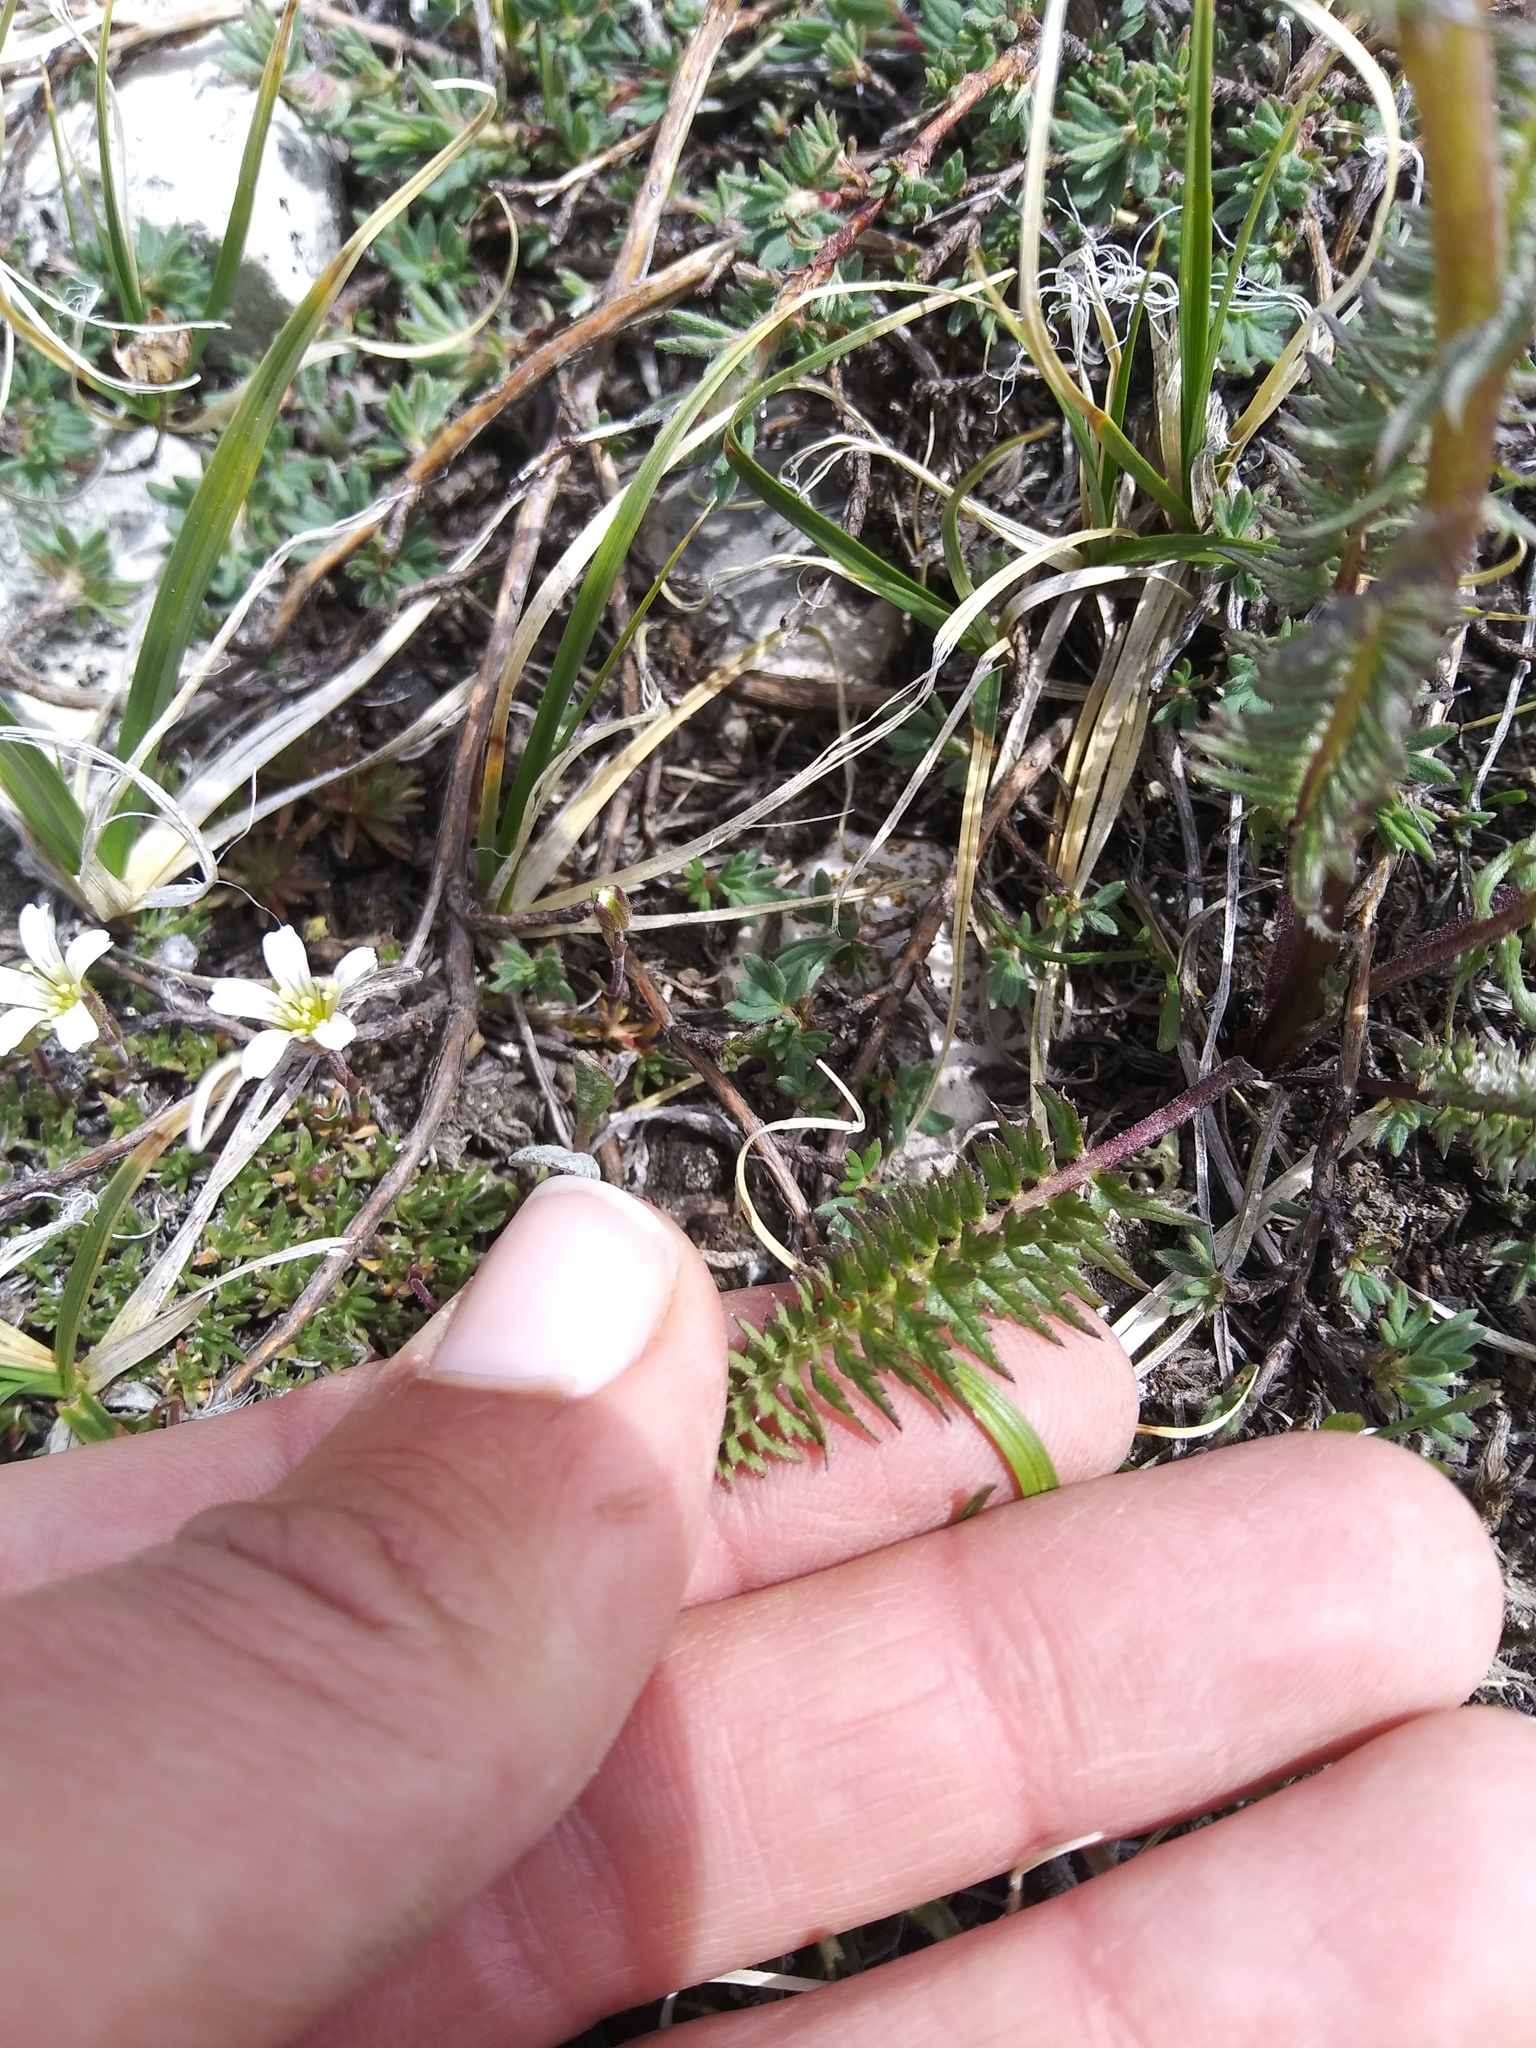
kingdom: Plantae
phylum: Tracheophyta
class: Magnoliopsida
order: Lamiales
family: Orobanchaceae
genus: Pedicularis
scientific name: Pedicularis cystopteridifolia
